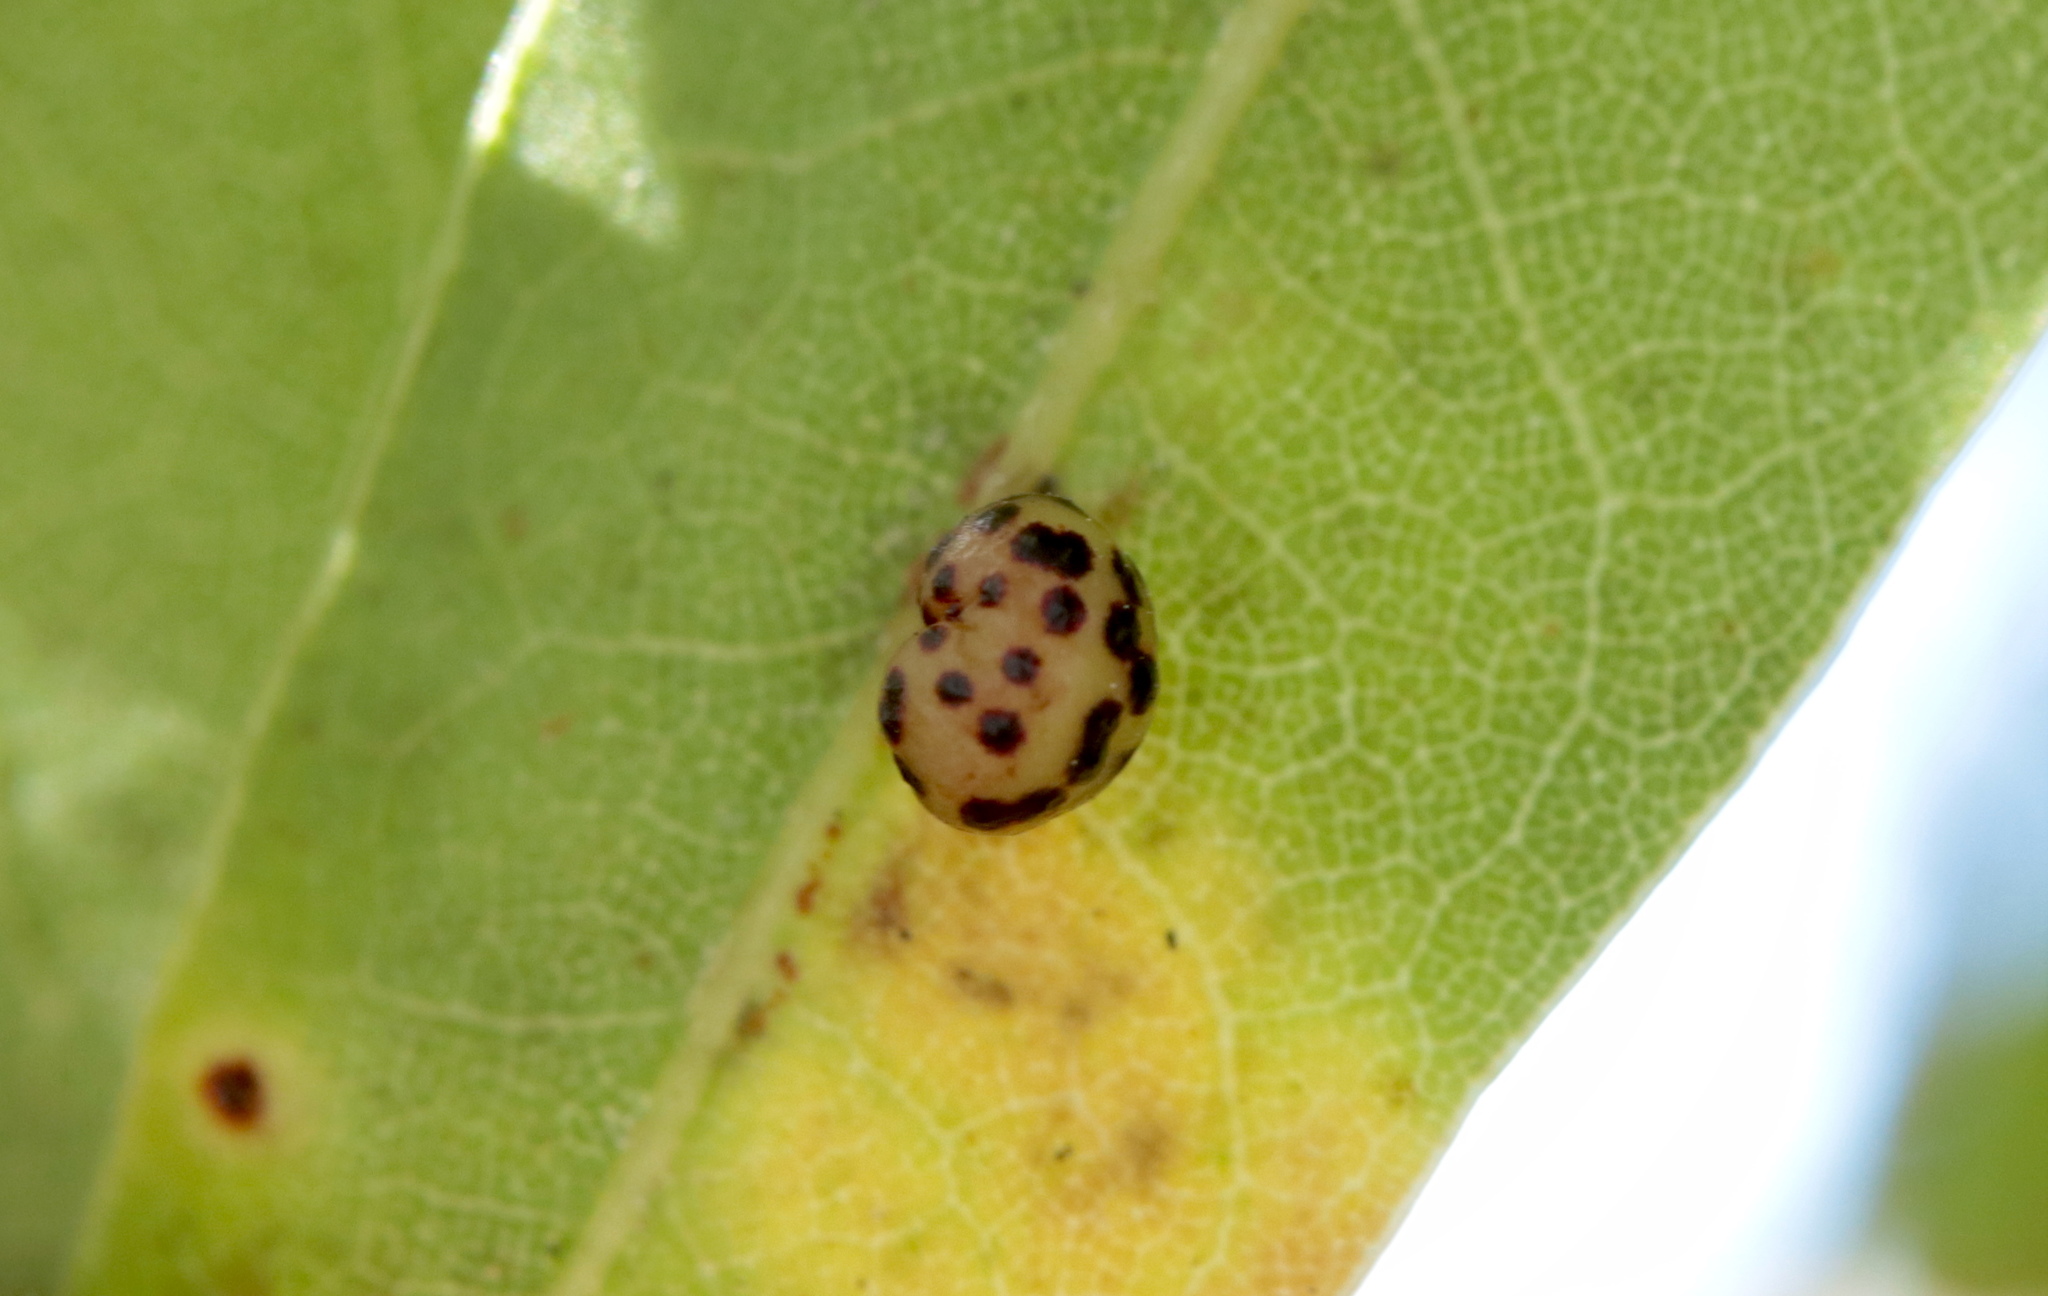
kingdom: Animalia
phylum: Arthropoda
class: Insecta
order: Hymenoptera
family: Cynipidae
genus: Zopheroteras
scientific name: Zopheroteras
